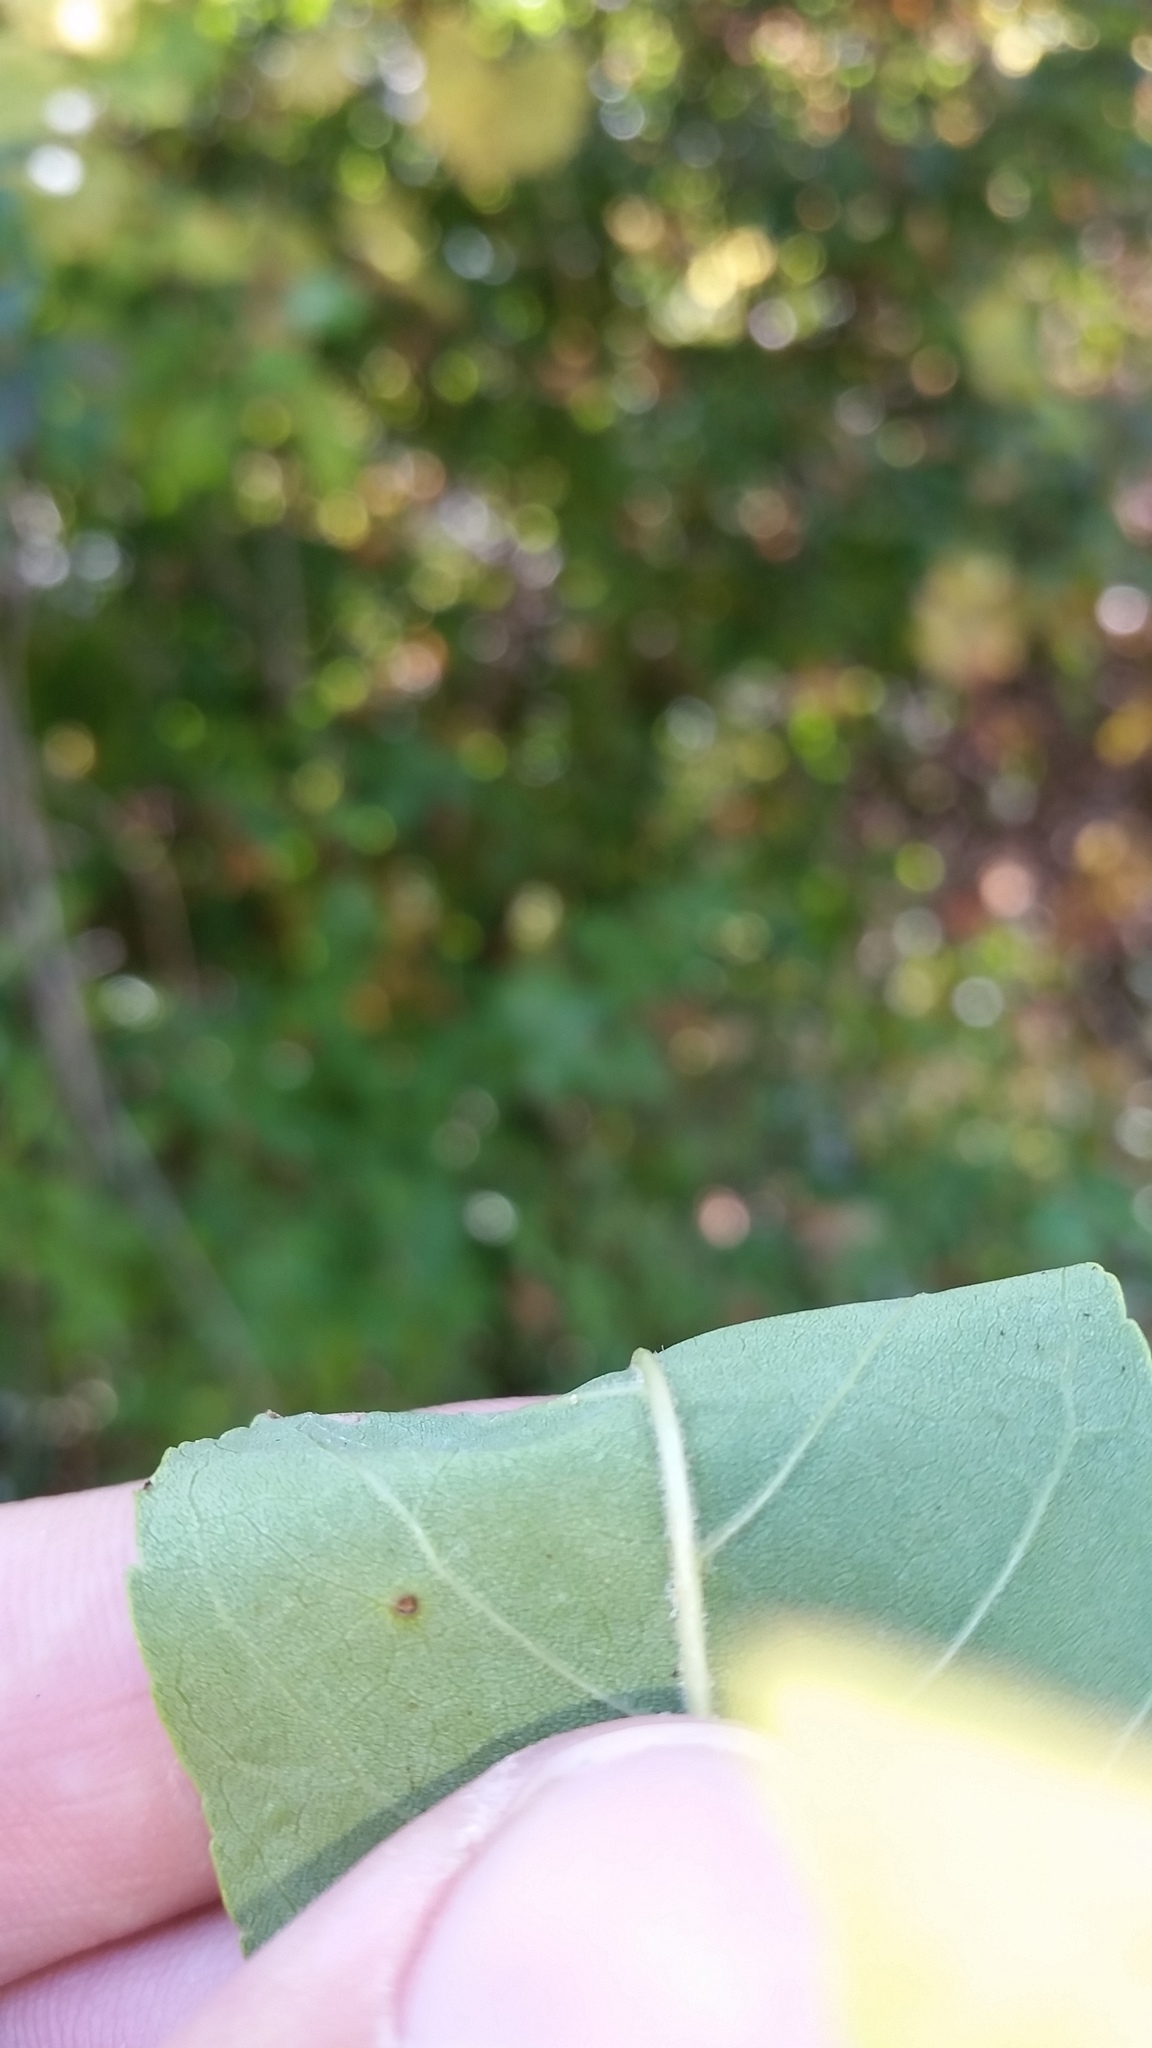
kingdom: Plantae
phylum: Tracheophyta
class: Magnoliopsida
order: Lamiales
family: Oleaceae
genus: Fraxinus
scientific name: Fraxinus pennsylvanica
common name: Green ash
